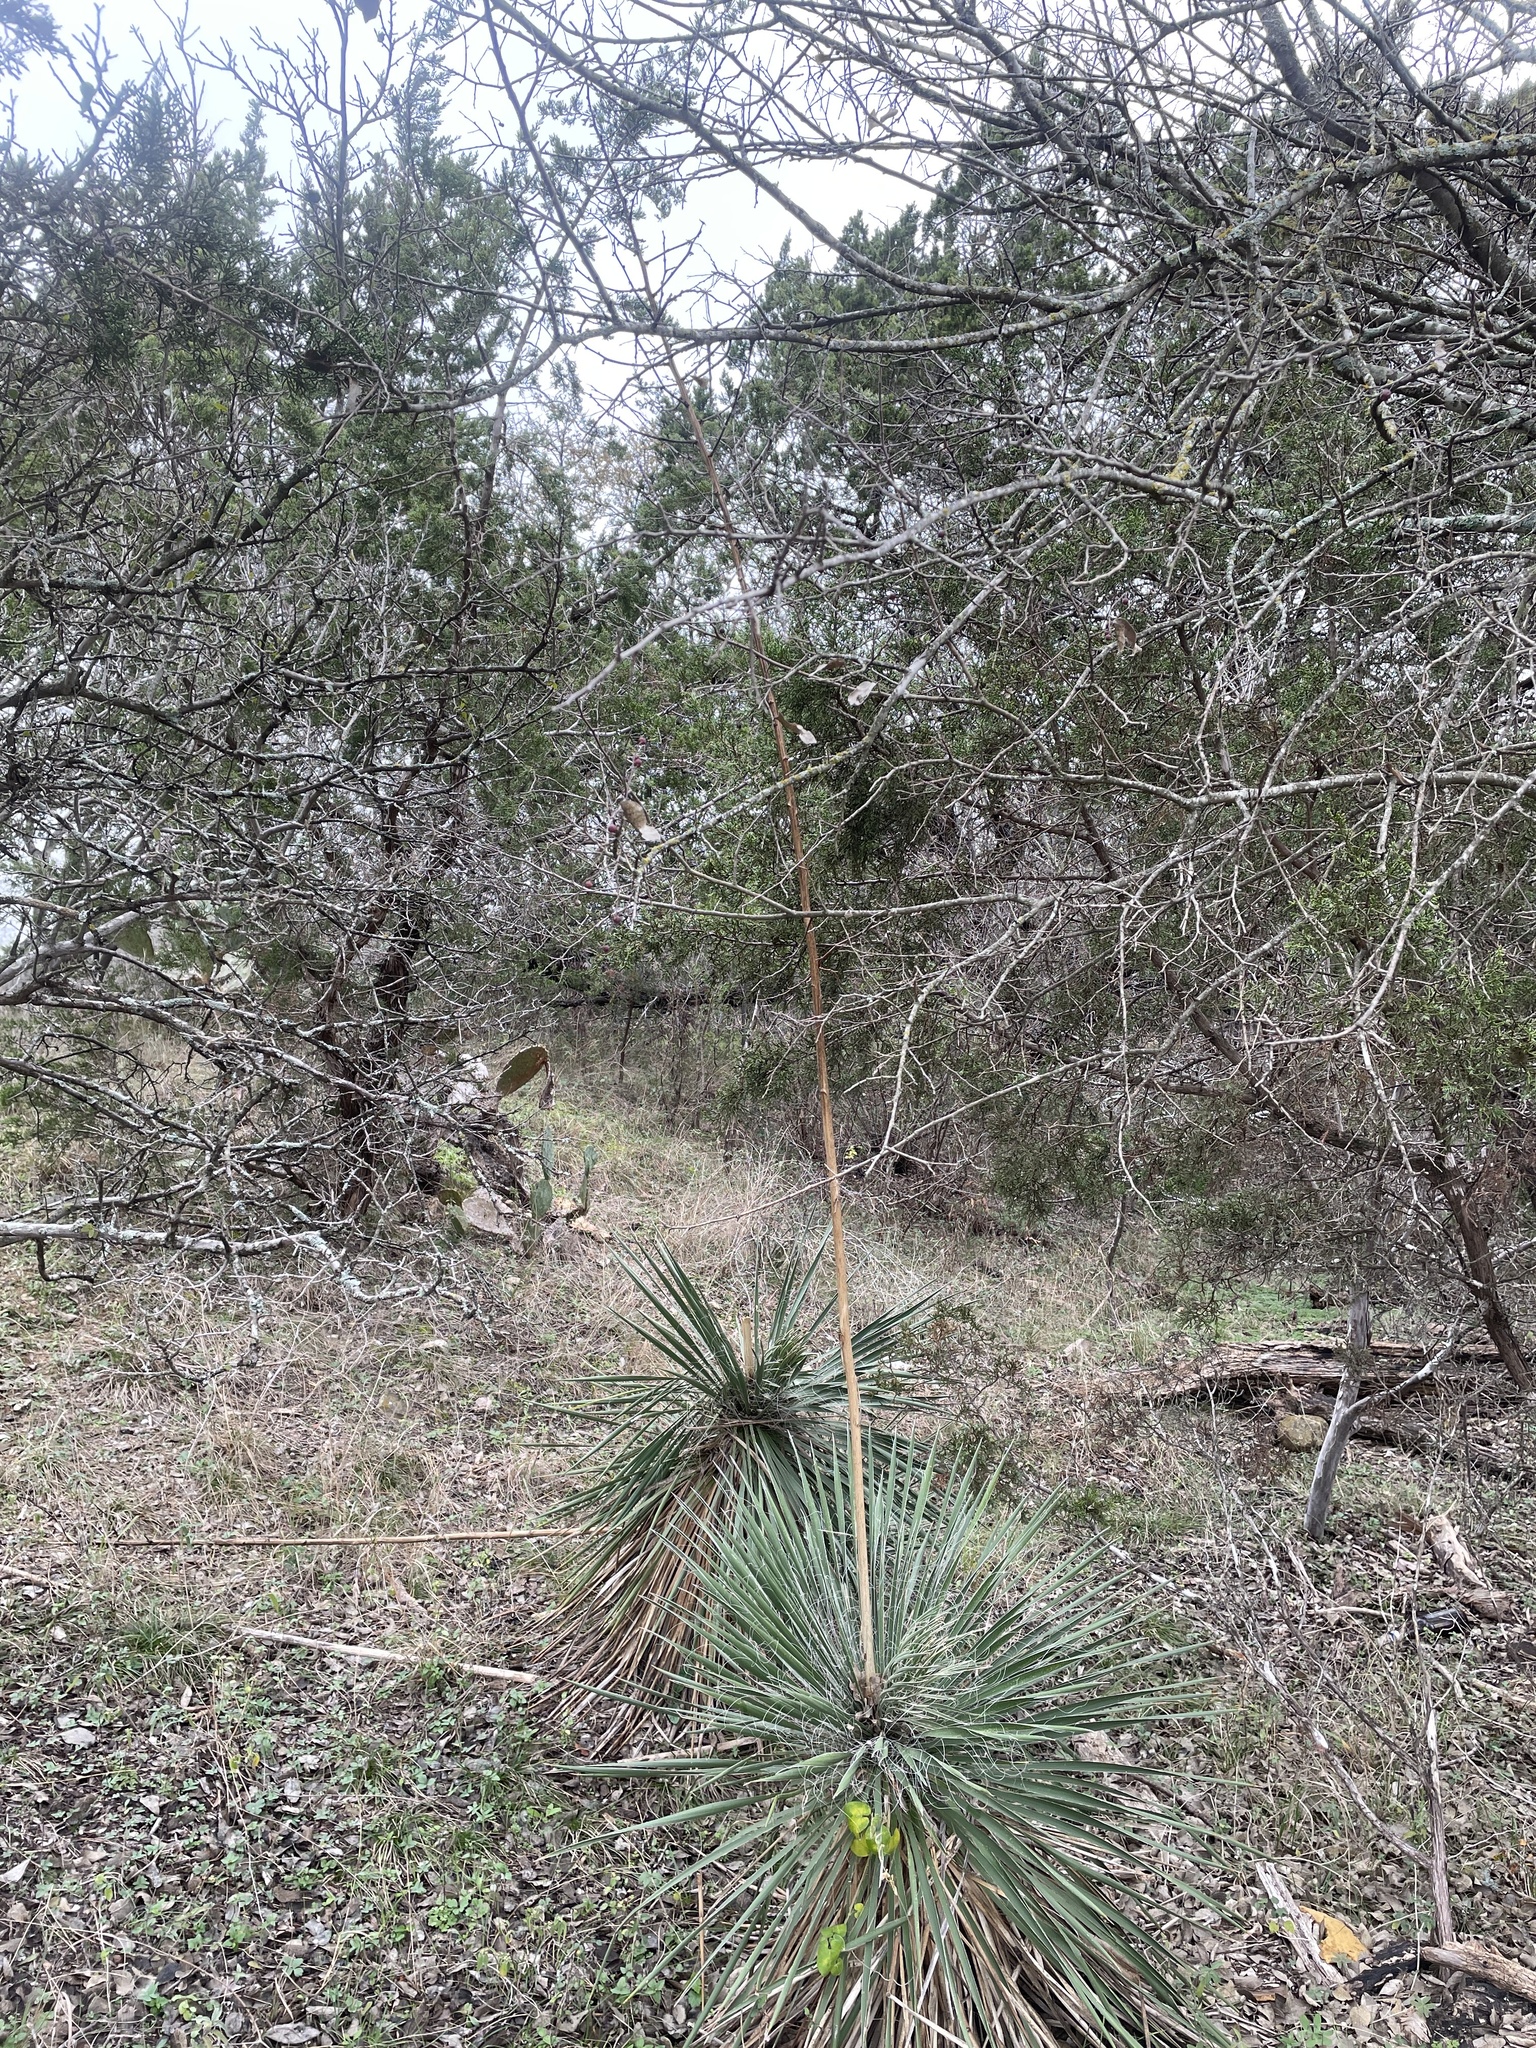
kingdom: Plantae
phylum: Tracheophyta
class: Liliopsida
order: Asparagales
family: Asparagaceae
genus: Yucca
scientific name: Yucca constricta
